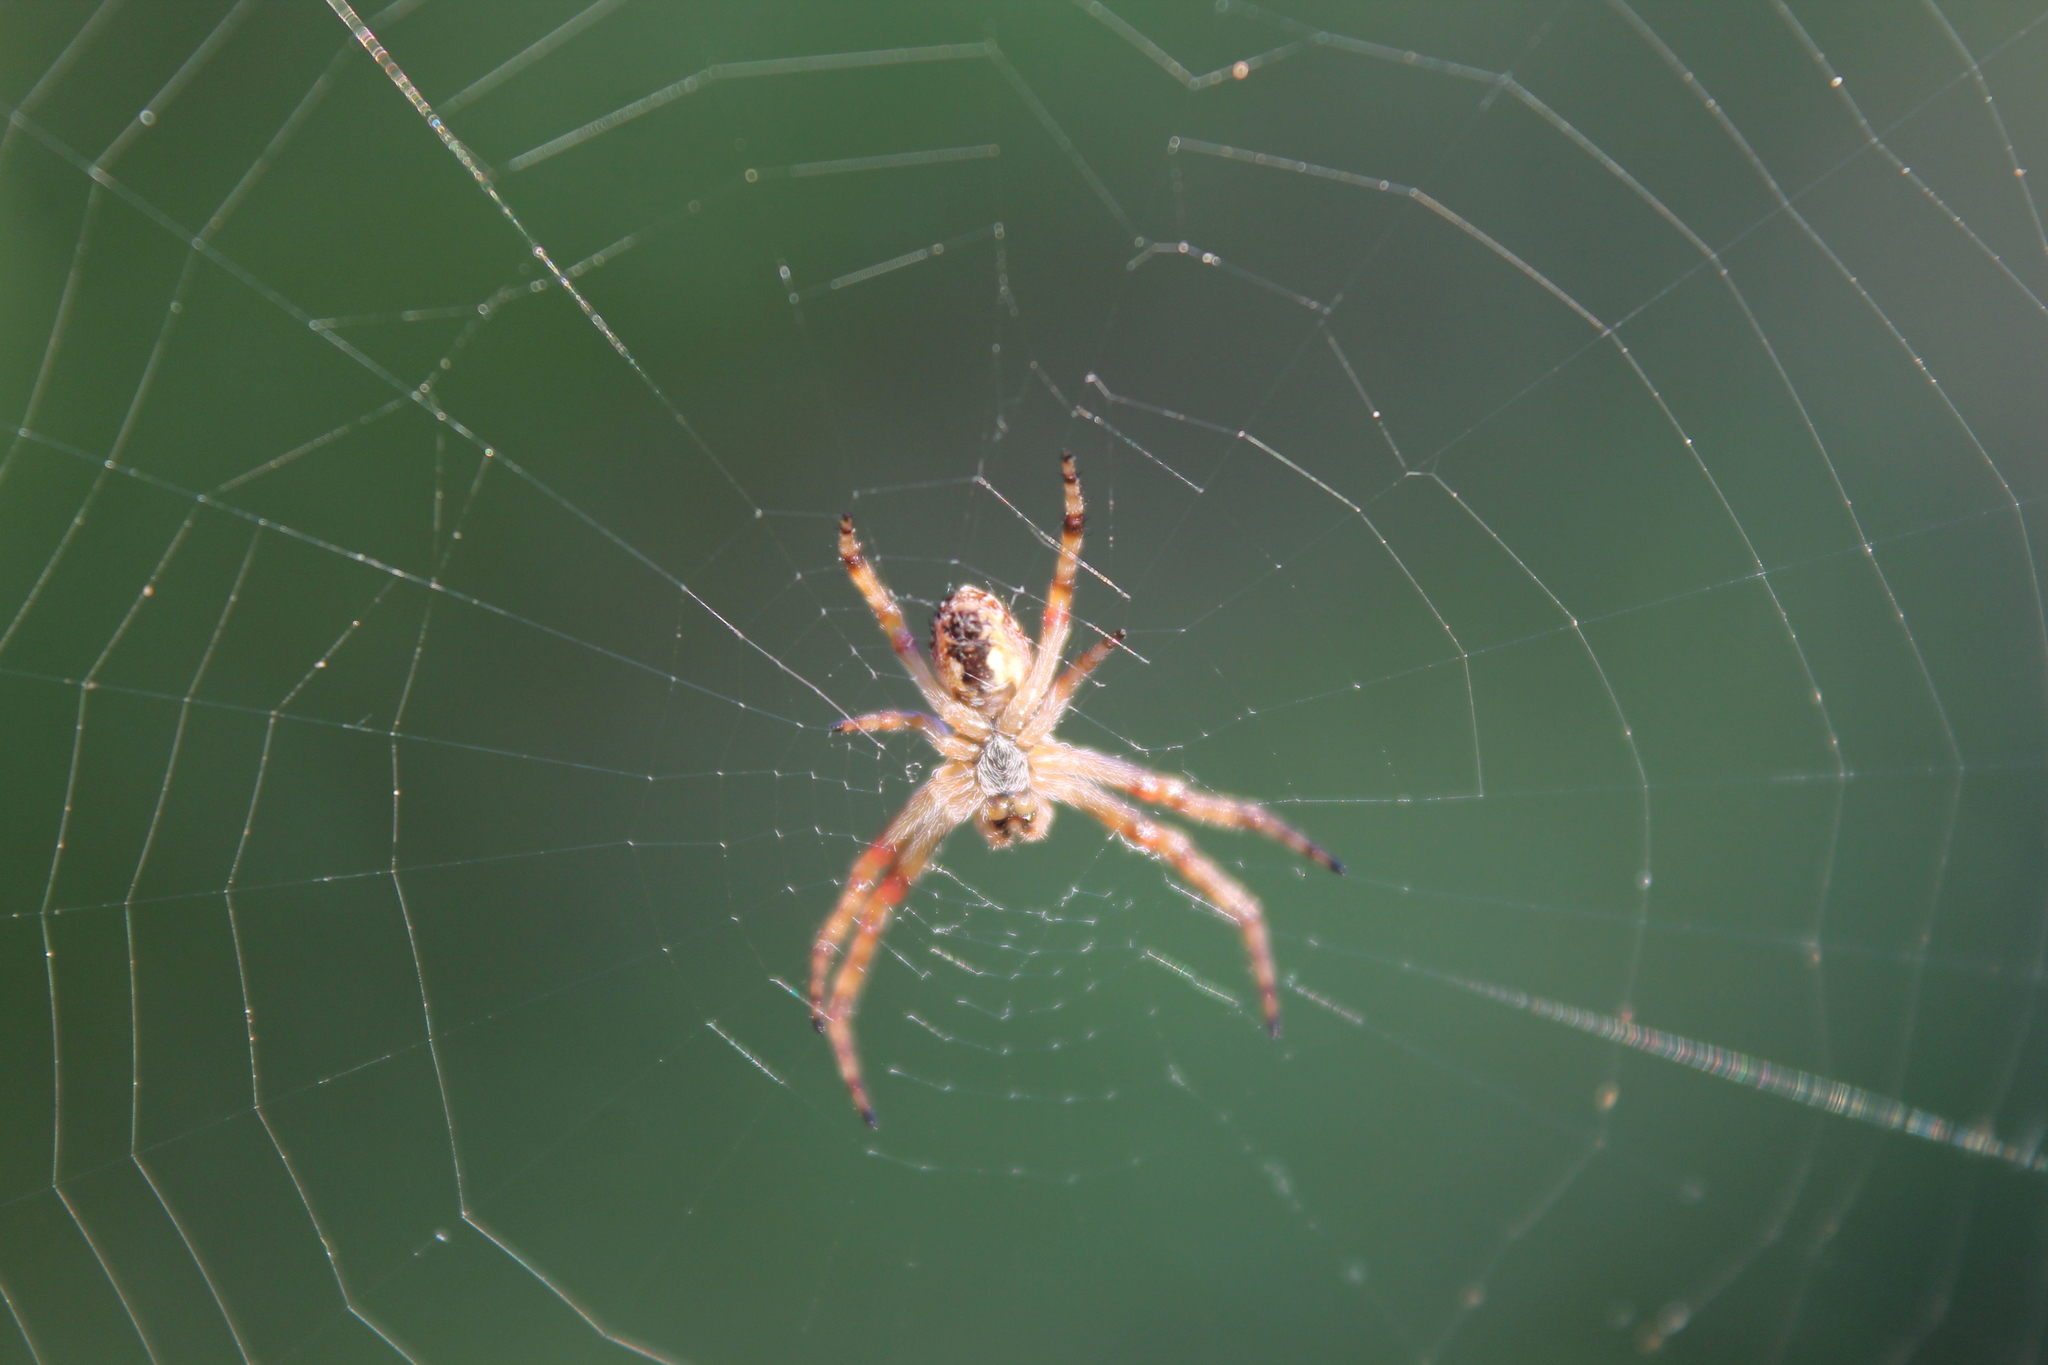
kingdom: Animalia
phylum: Arthropoda
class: Arachnida
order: Araneae
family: Araneidae
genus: Salsa
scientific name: Salsa fuliginata
